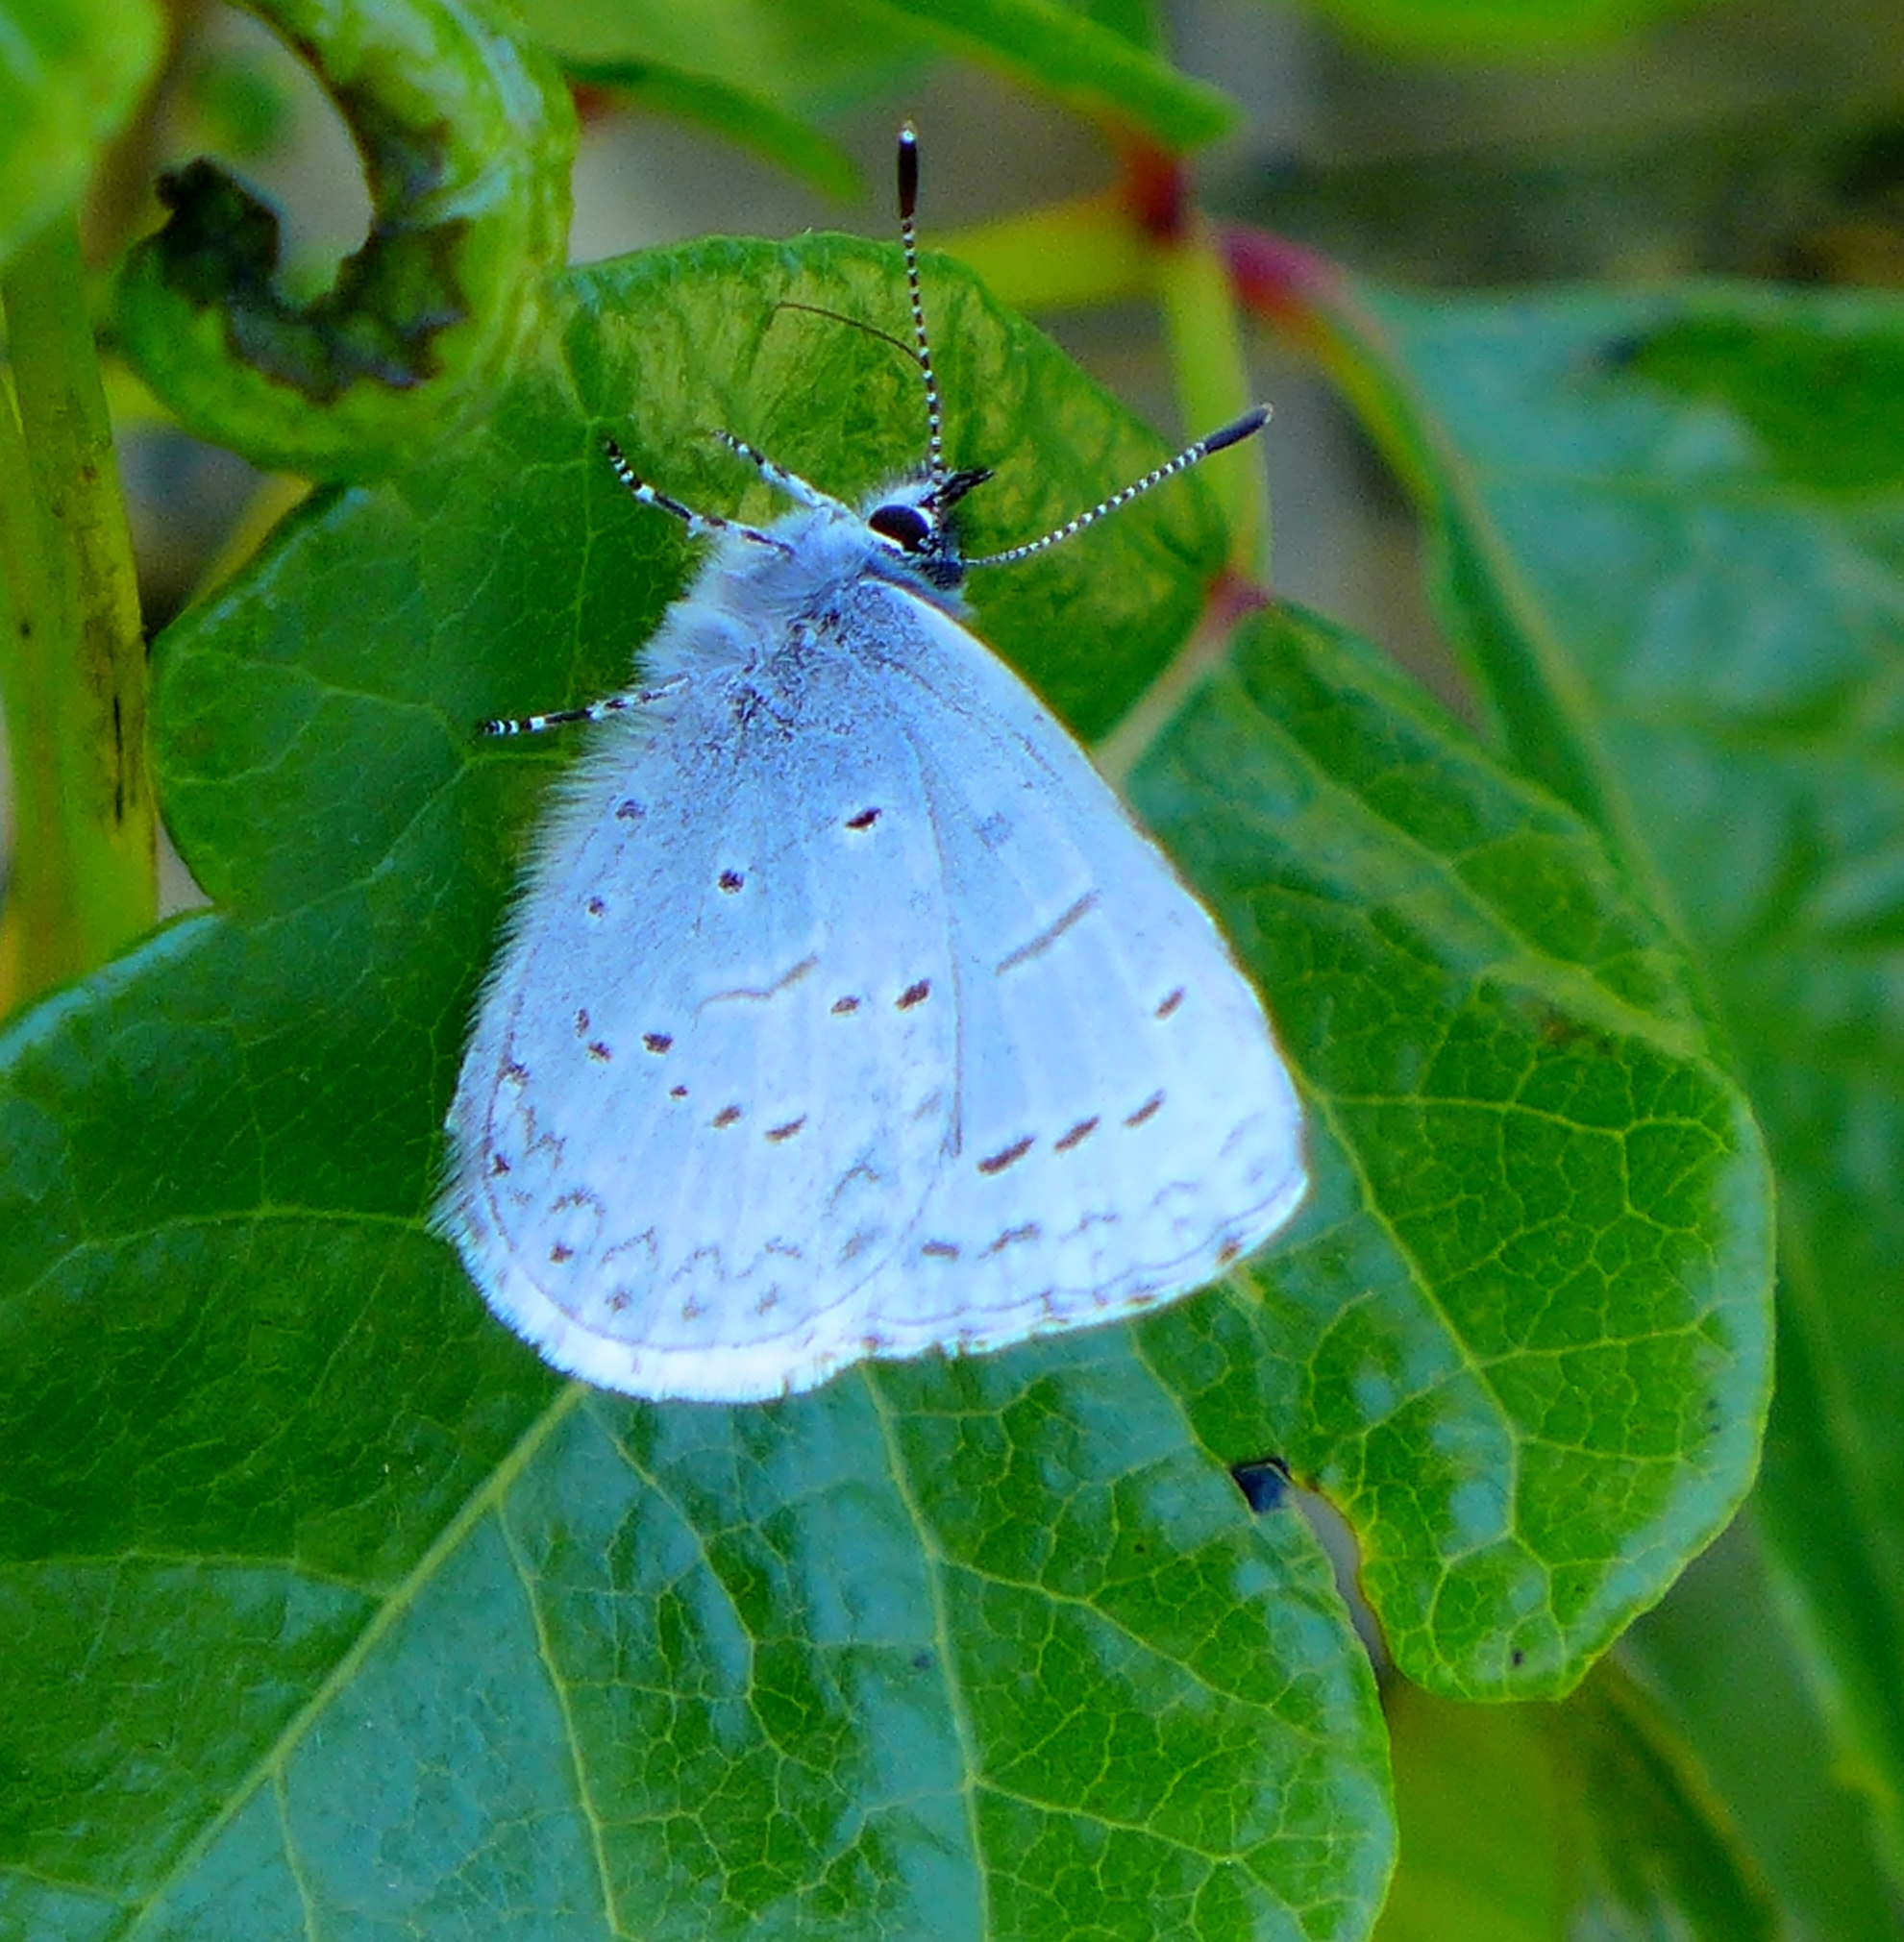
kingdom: Animalia
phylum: Arthropoda
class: Insecta
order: Lepidoptera
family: Lycaenidae
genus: Celastrina
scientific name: Celastrina ladon
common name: Spring azure
